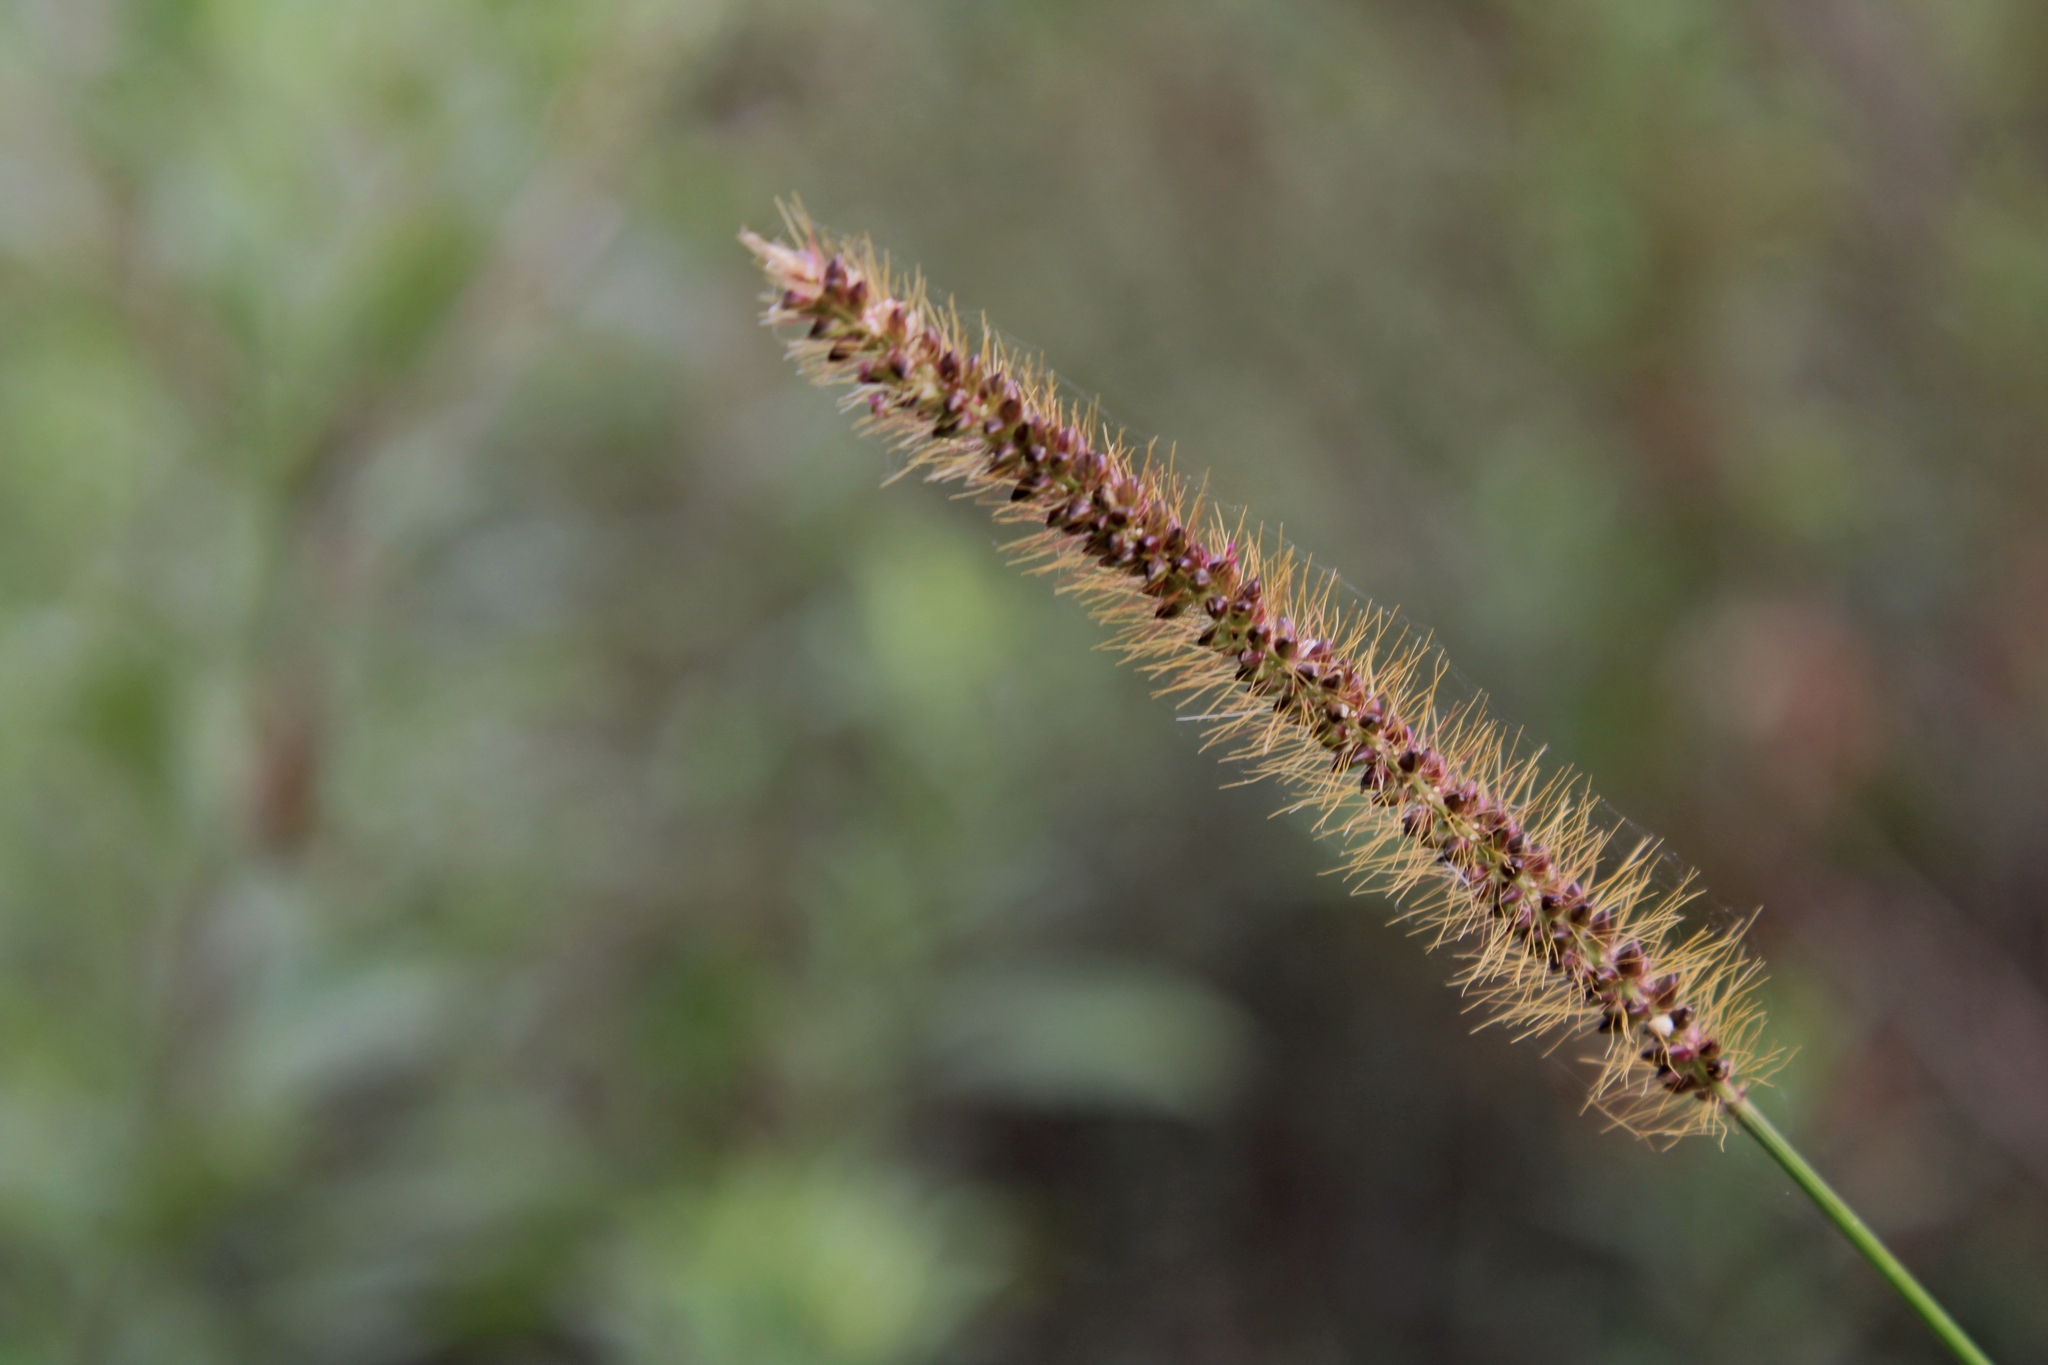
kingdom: Plantae
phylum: Tracheophyta
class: Liliopsida
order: Poales
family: Poaceae
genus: Setaria
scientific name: Setaria parviflora
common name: Knotroot bristle-grass
